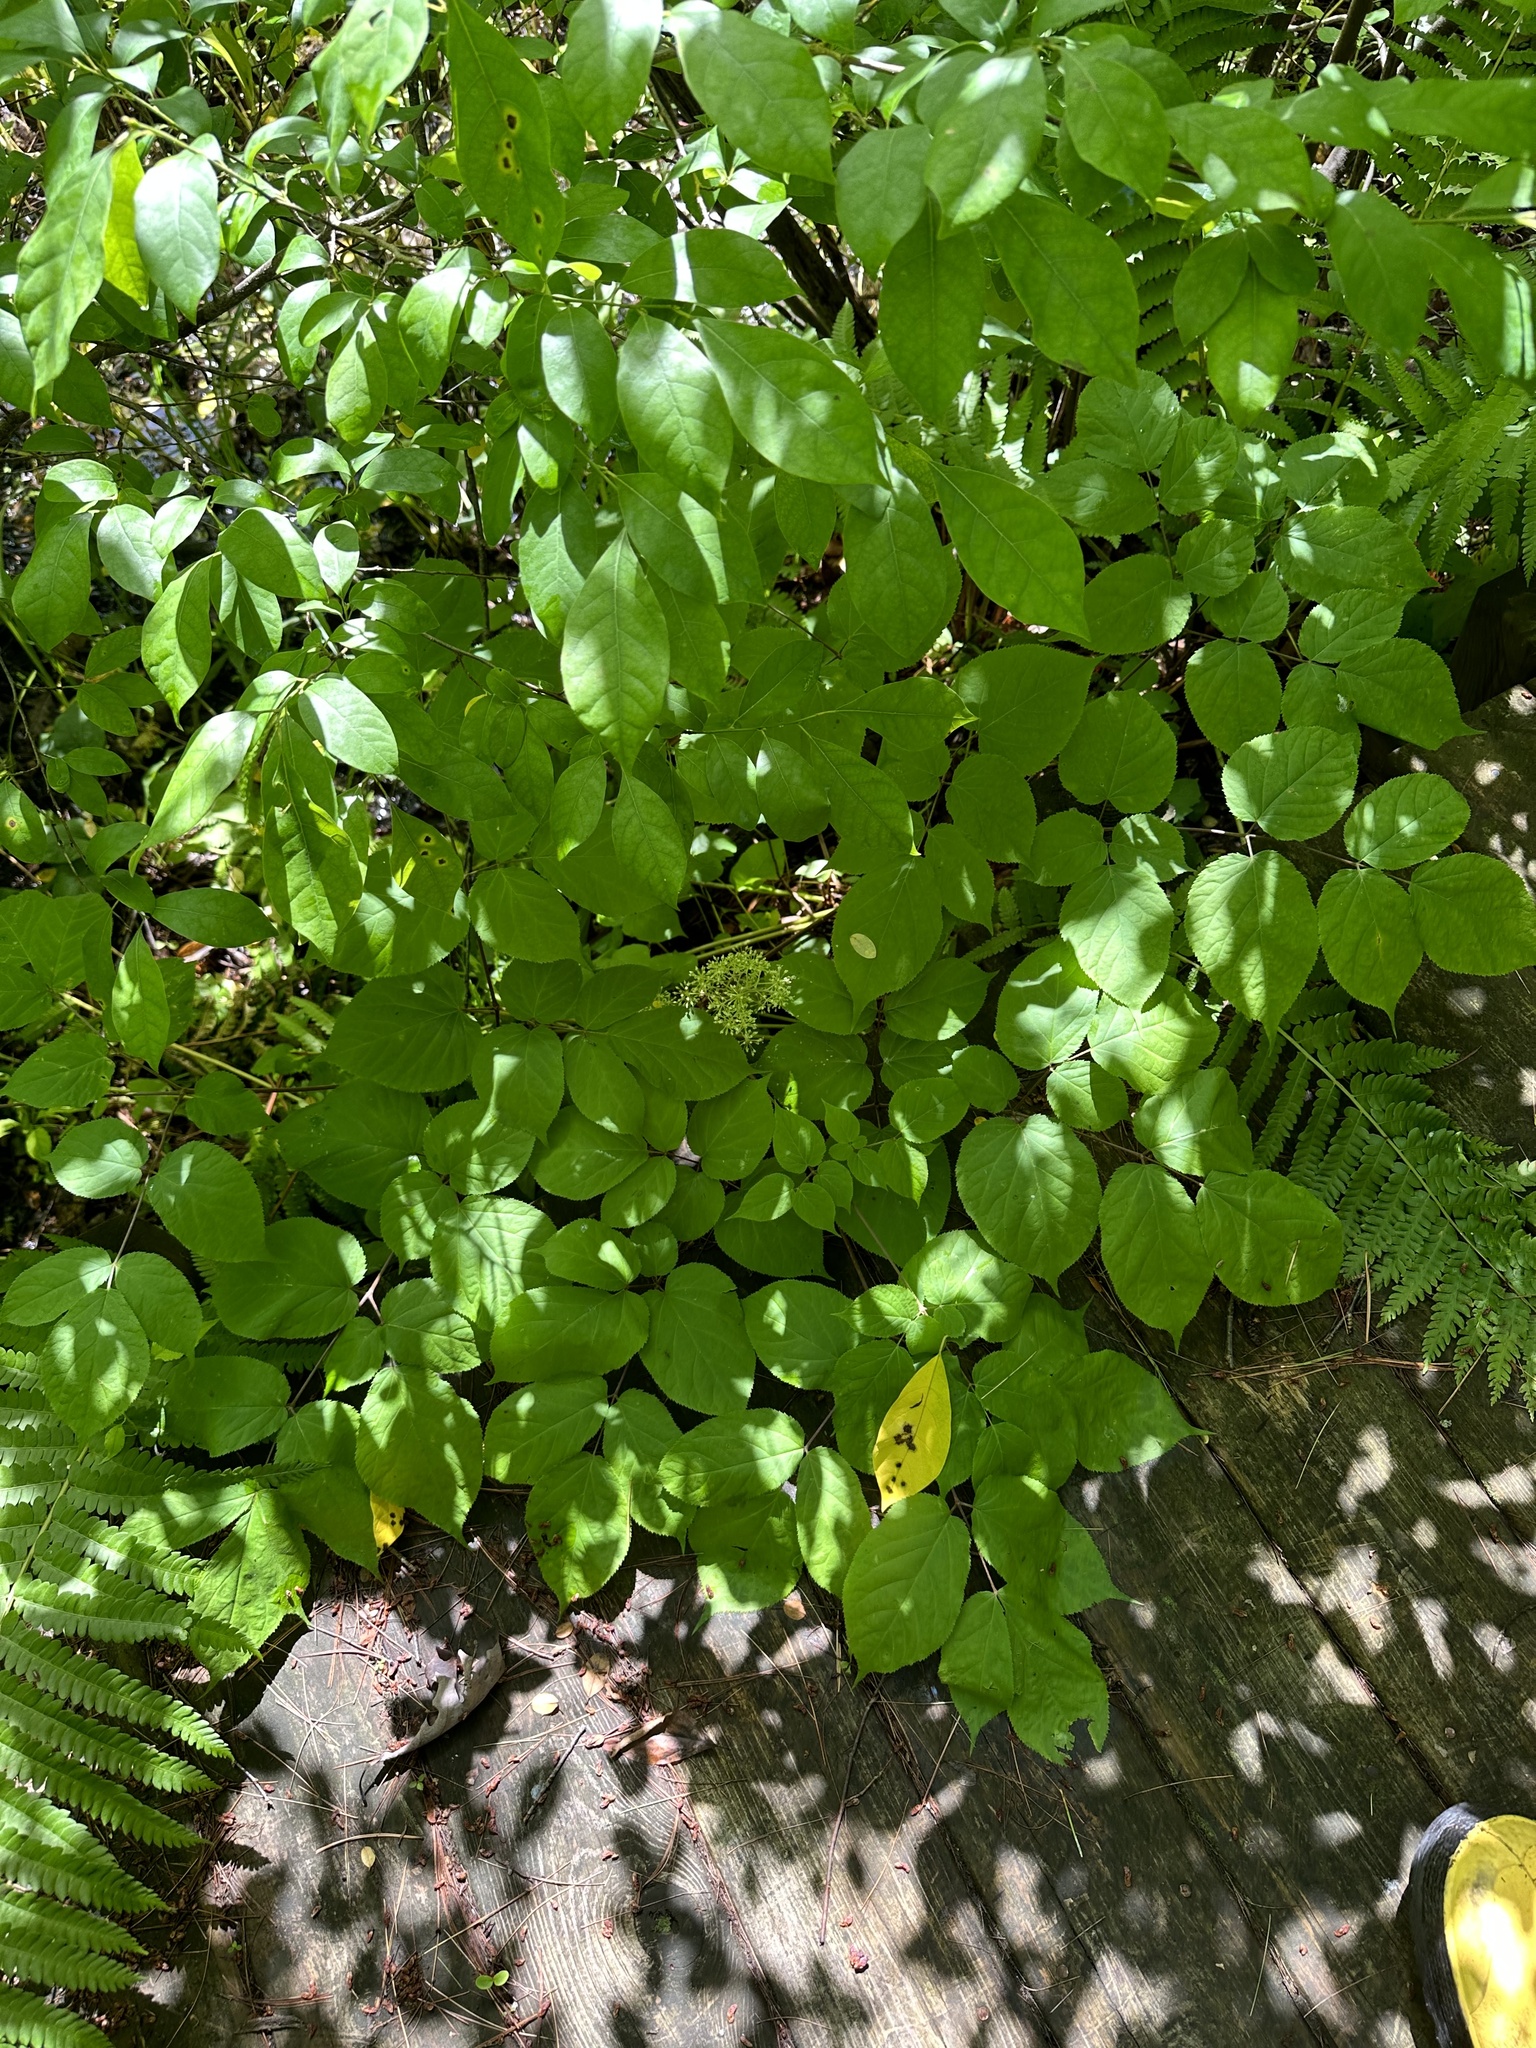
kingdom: Plantae
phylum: Tracheophyta
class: Magnoliopsida
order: Apiales
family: Araliaceae
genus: Aralia
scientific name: Aralia racemosa
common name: American-spikenard
